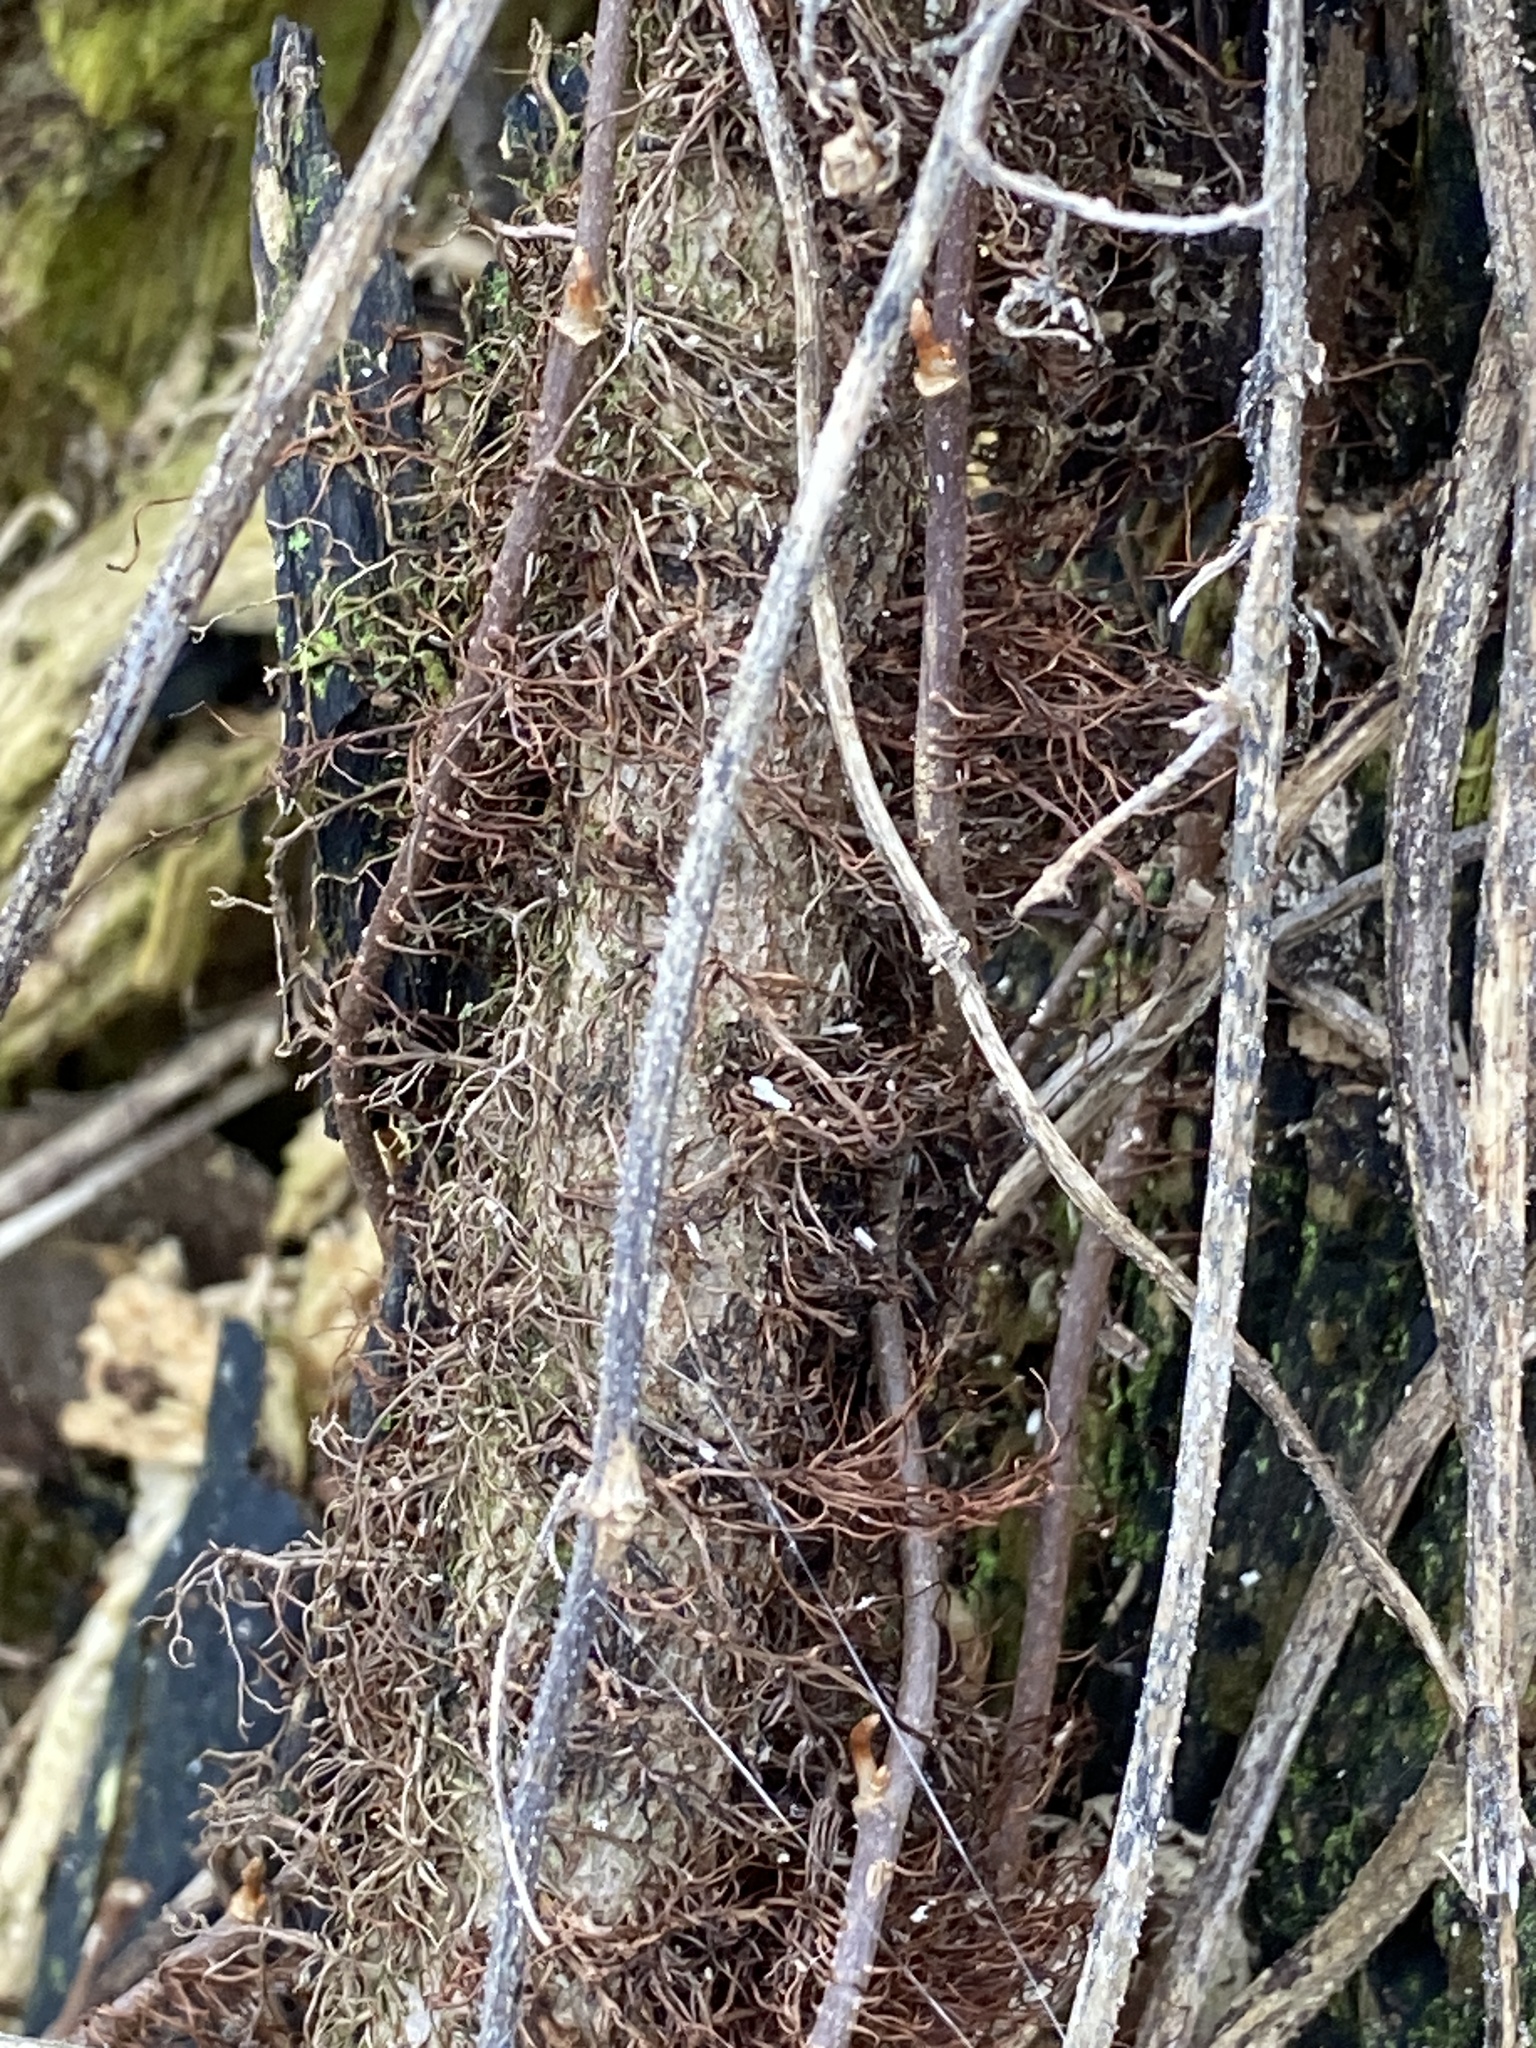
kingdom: Plantae
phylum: Tracheophyta
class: Magnoliopsida
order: Sapindales
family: Anacardiaceae
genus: Toxicodendron
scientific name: Toxicodendron radicans
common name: Poison ivy
